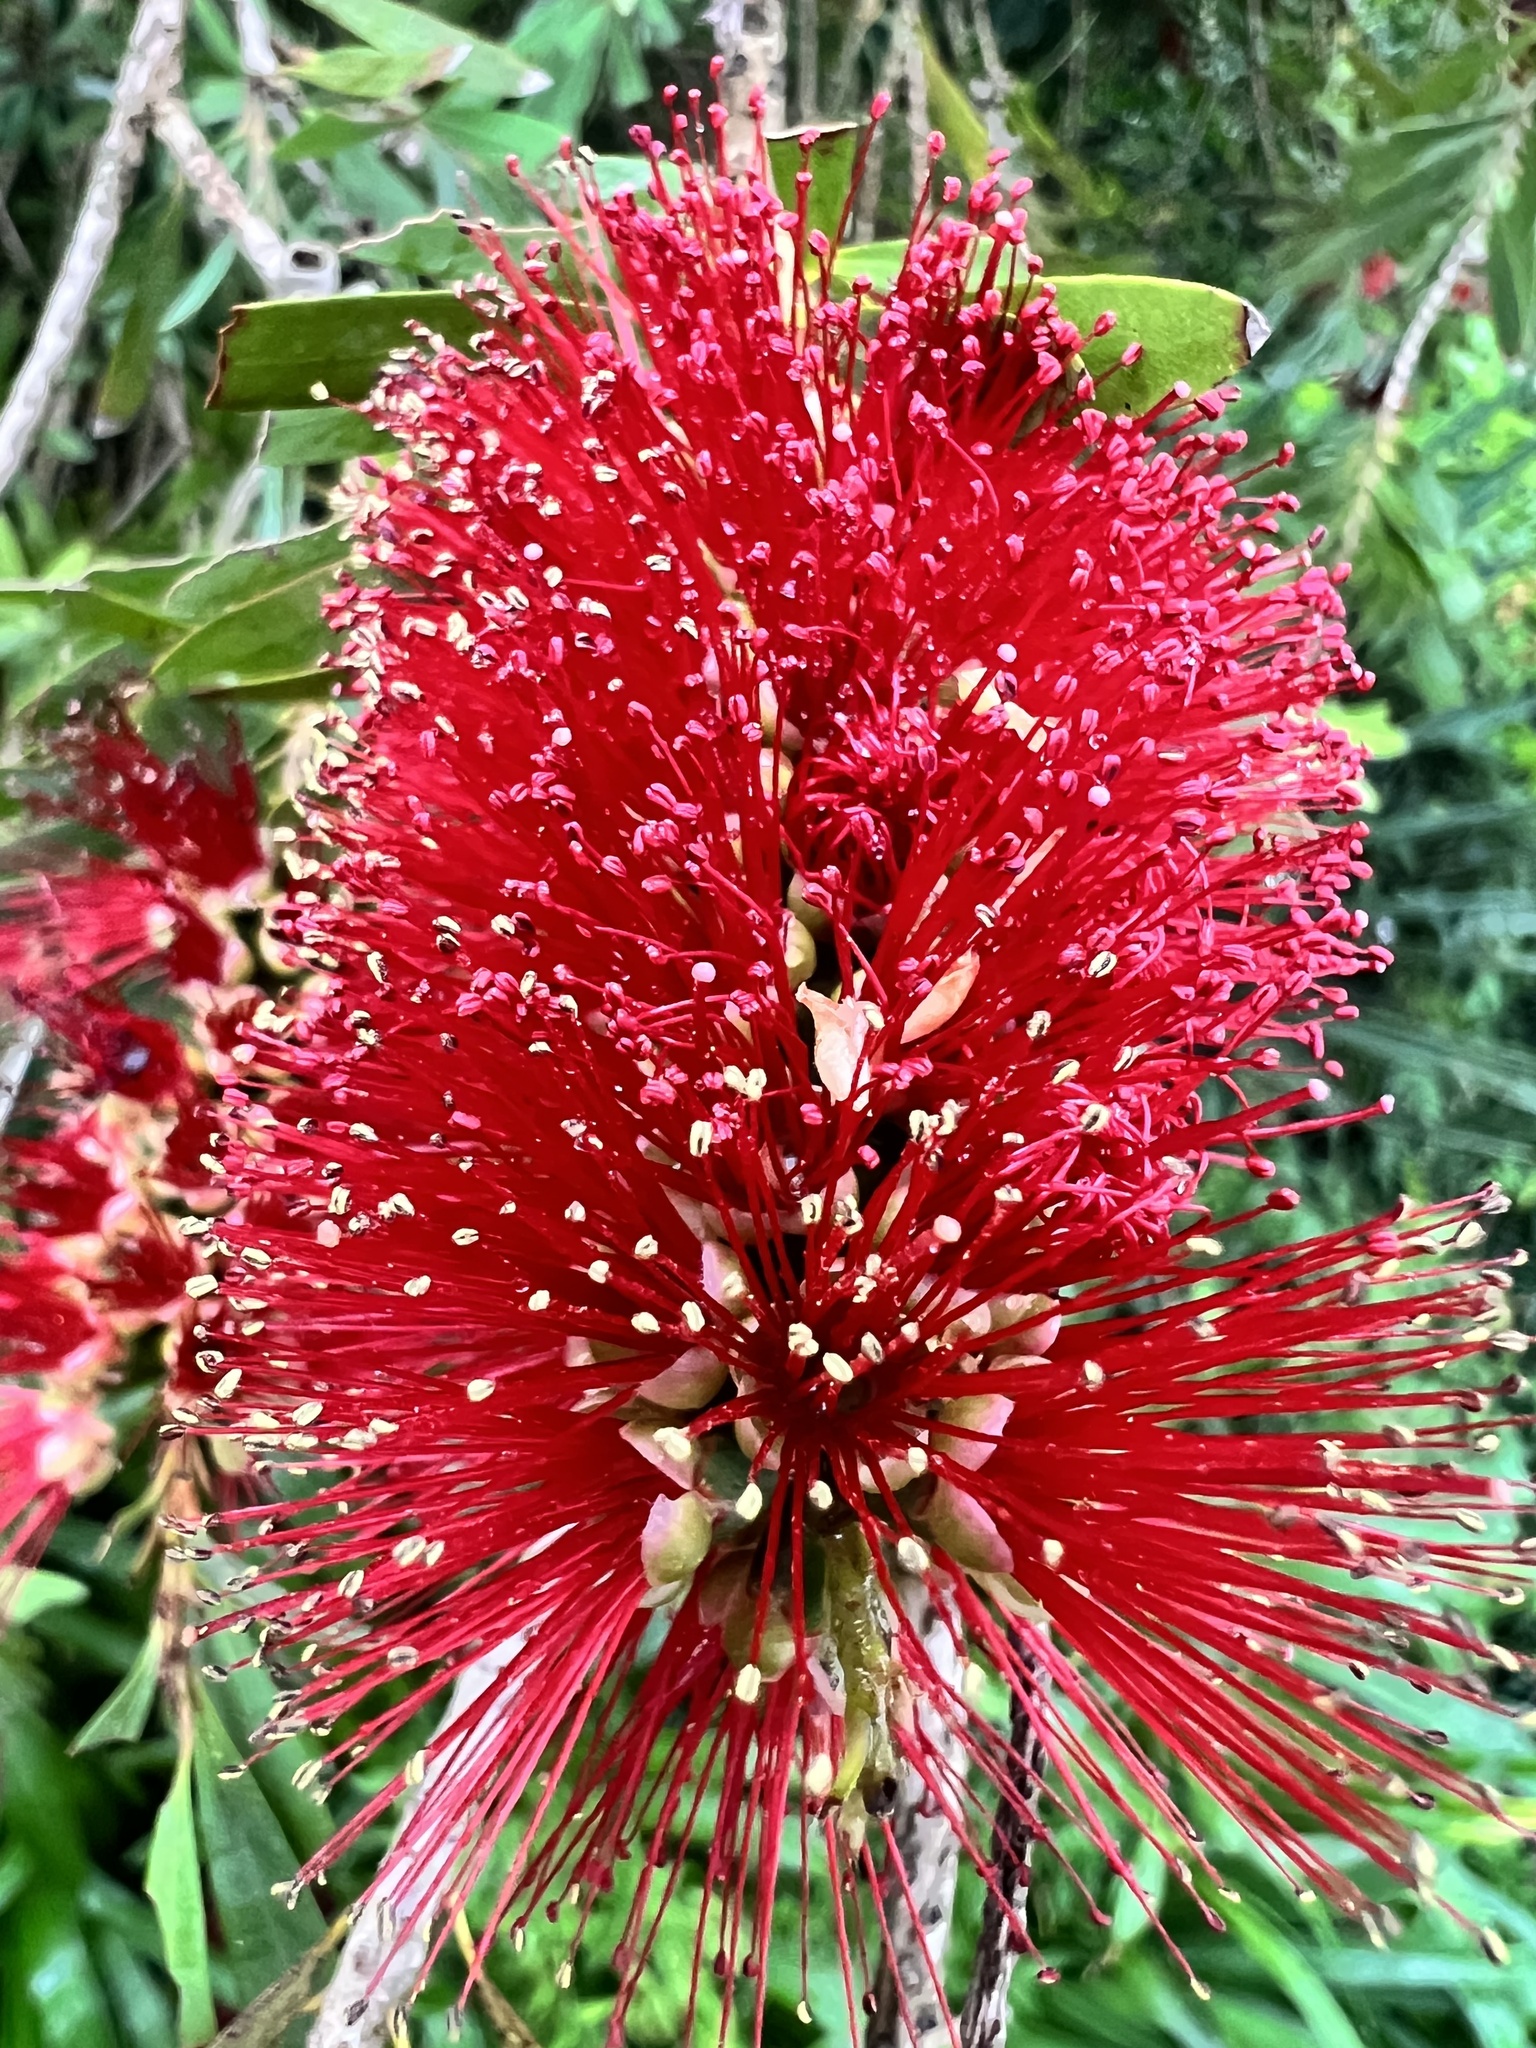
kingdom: Plantae
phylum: Tracheophyta
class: Magnoliopsida
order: Myrtales
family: Myrtaceae
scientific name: Myrtaceae
